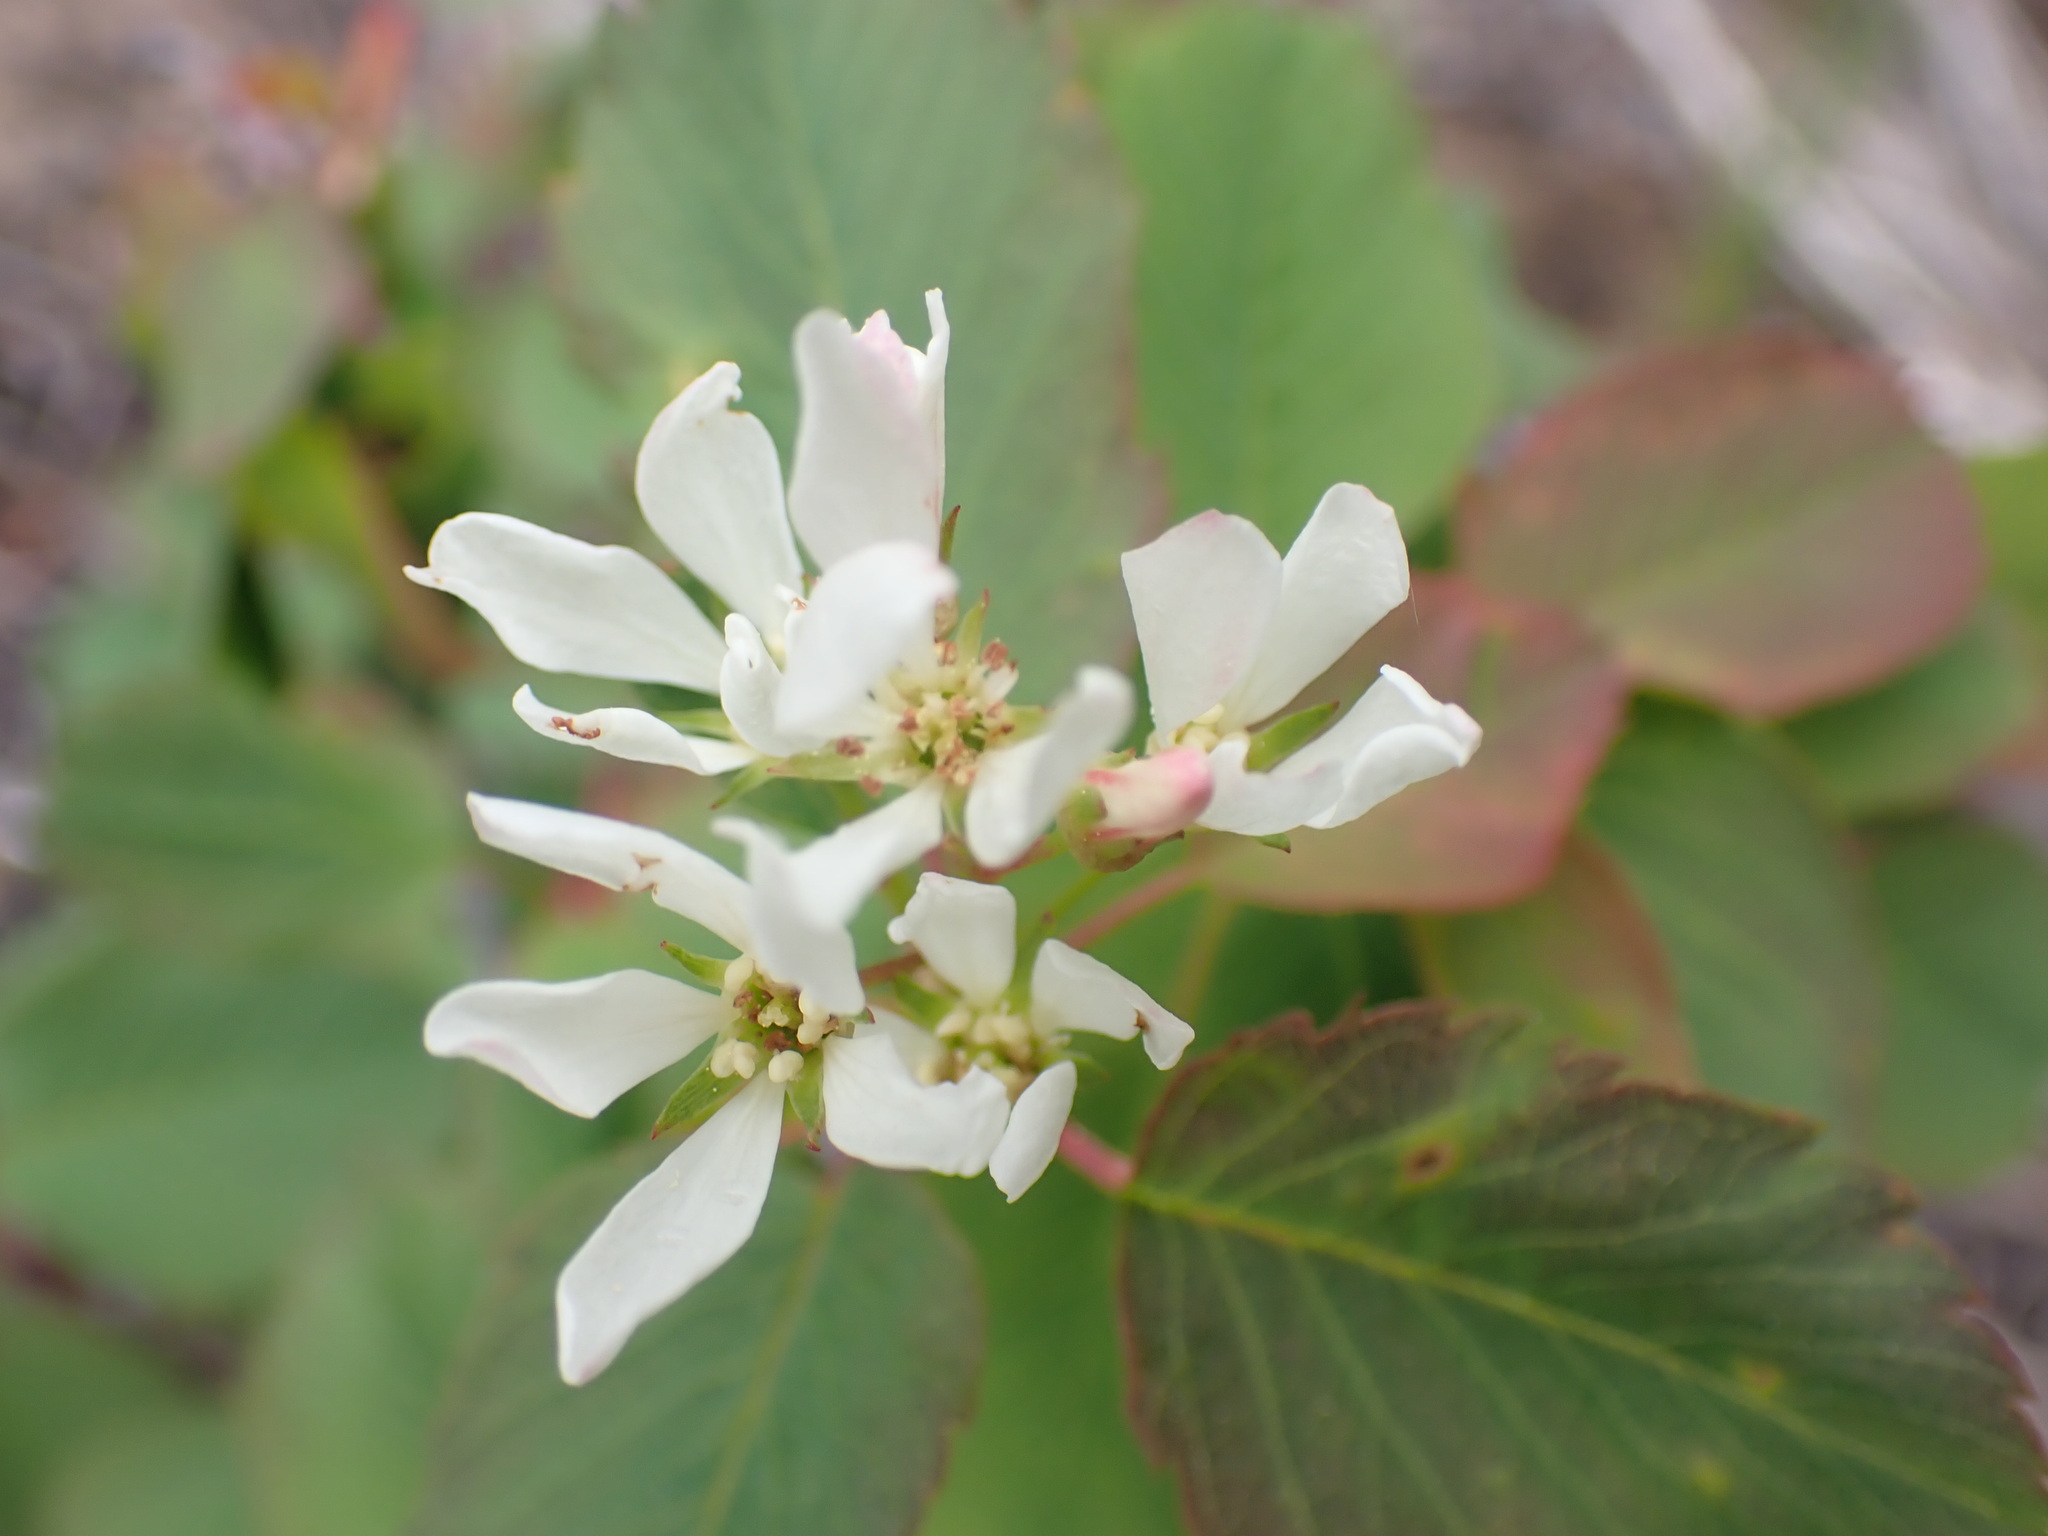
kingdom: Plantae
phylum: Tracheophyta
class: Magnoliopsida
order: Rosales
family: Rosaceae
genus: Amelanchier
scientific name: Amelanchier alnifolia
